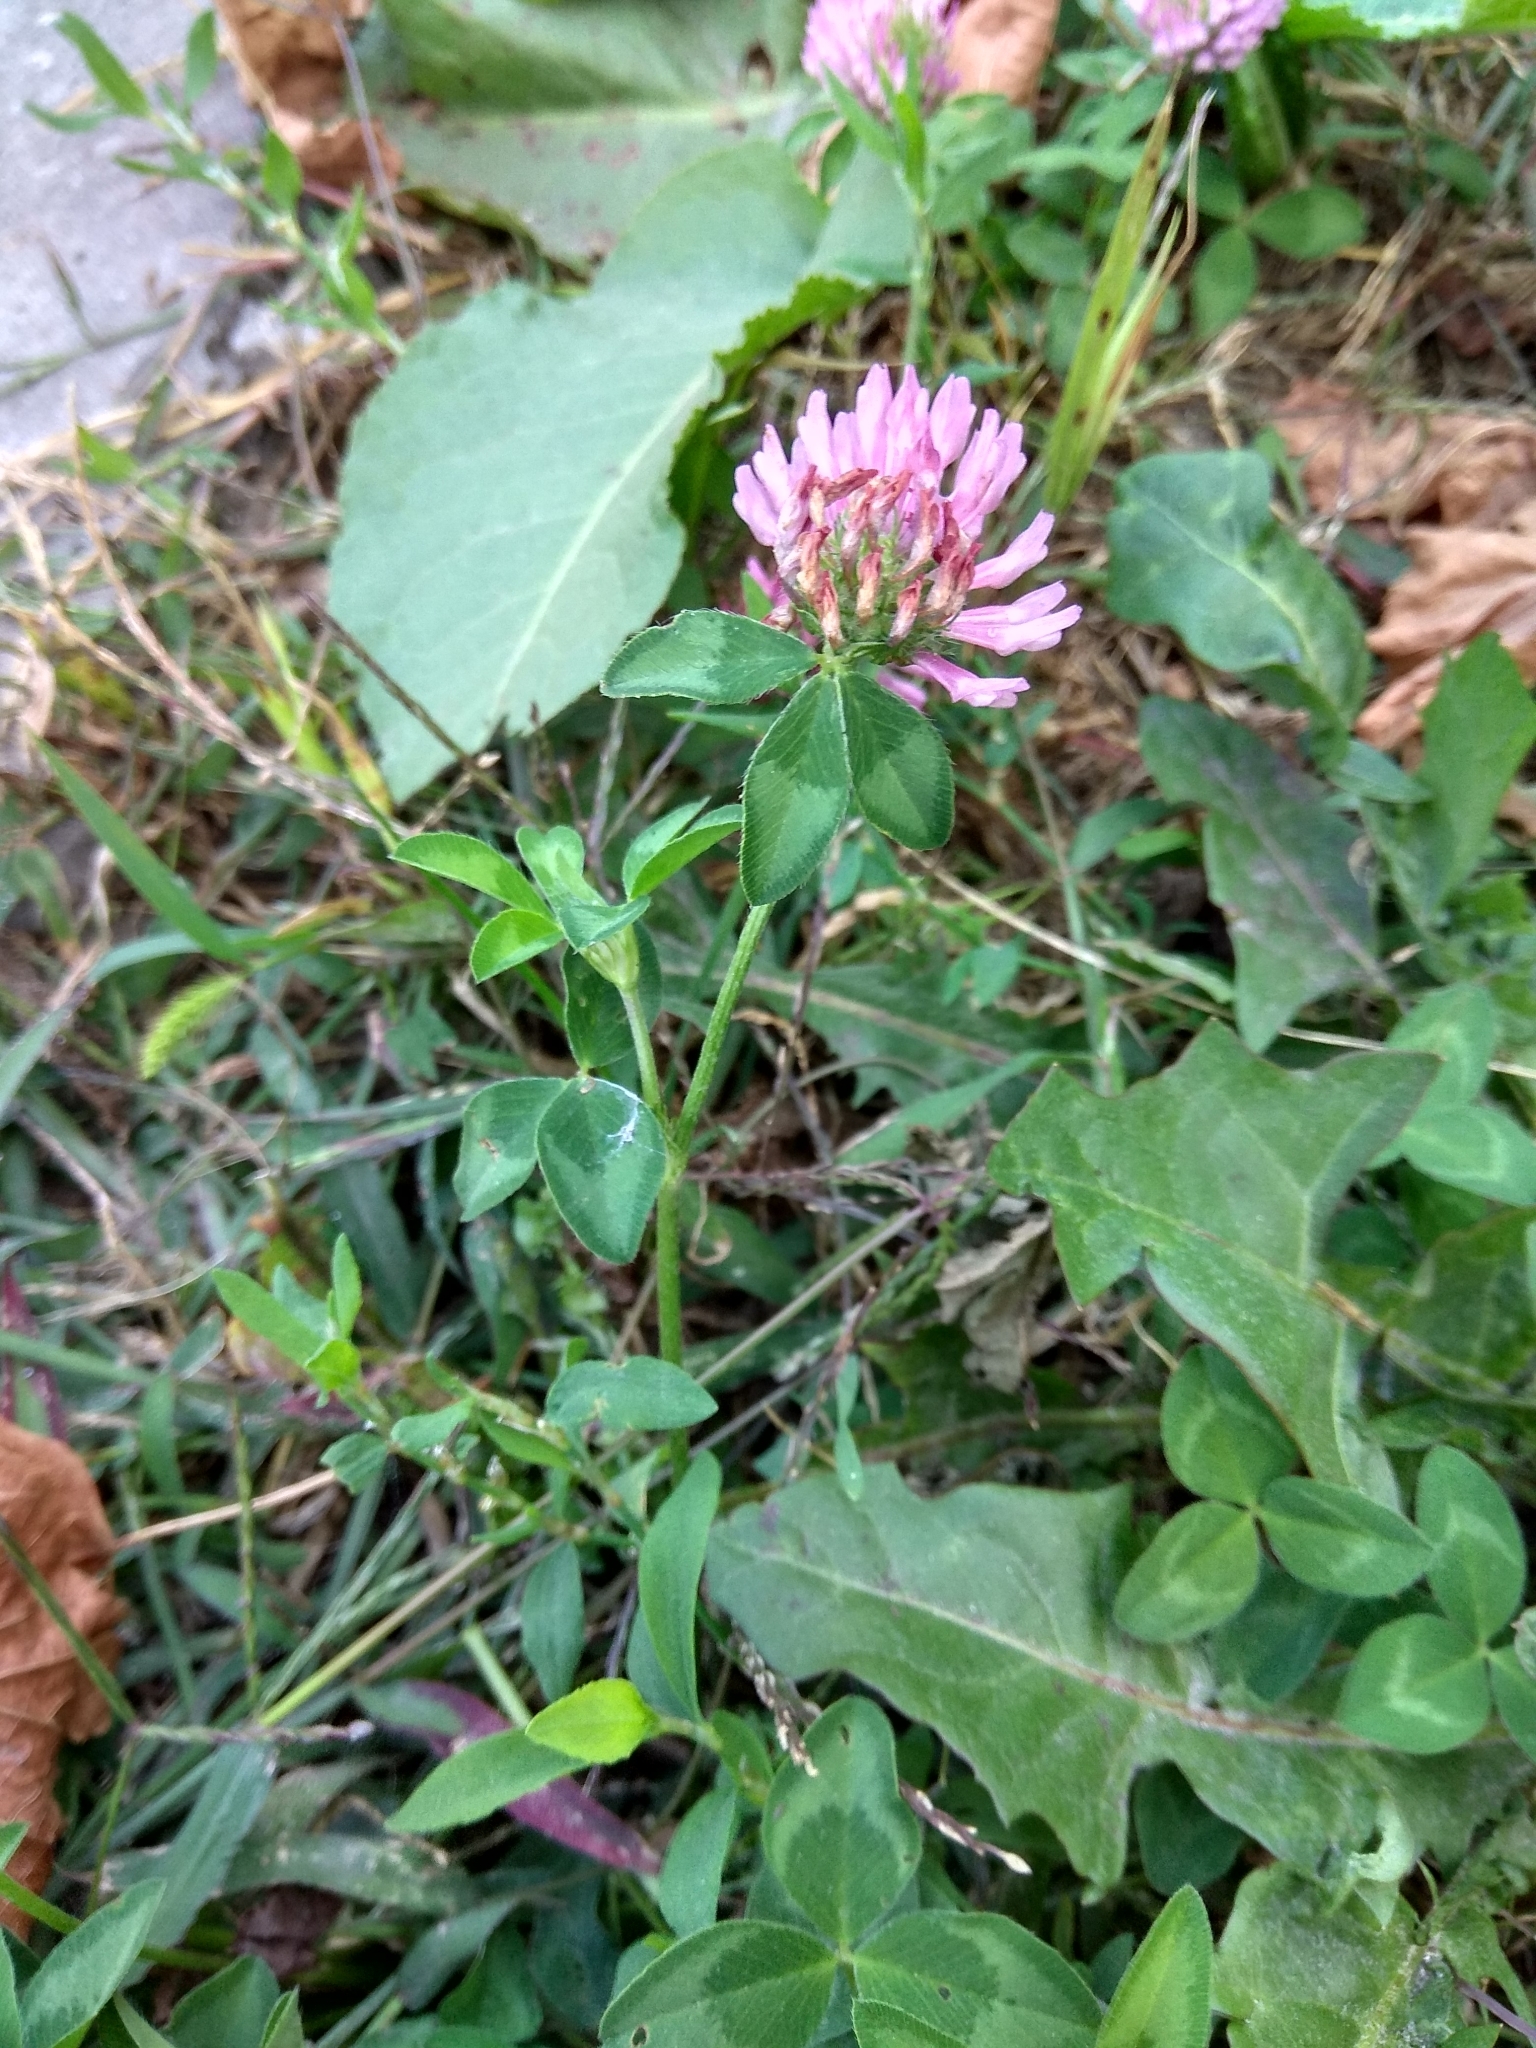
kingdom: Plantae
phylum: Tracheophyta
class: Magnoliopsida
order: Fabales
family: Fabaceae
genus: Trifolium
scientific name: Trifolium pratense
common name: Red clover
